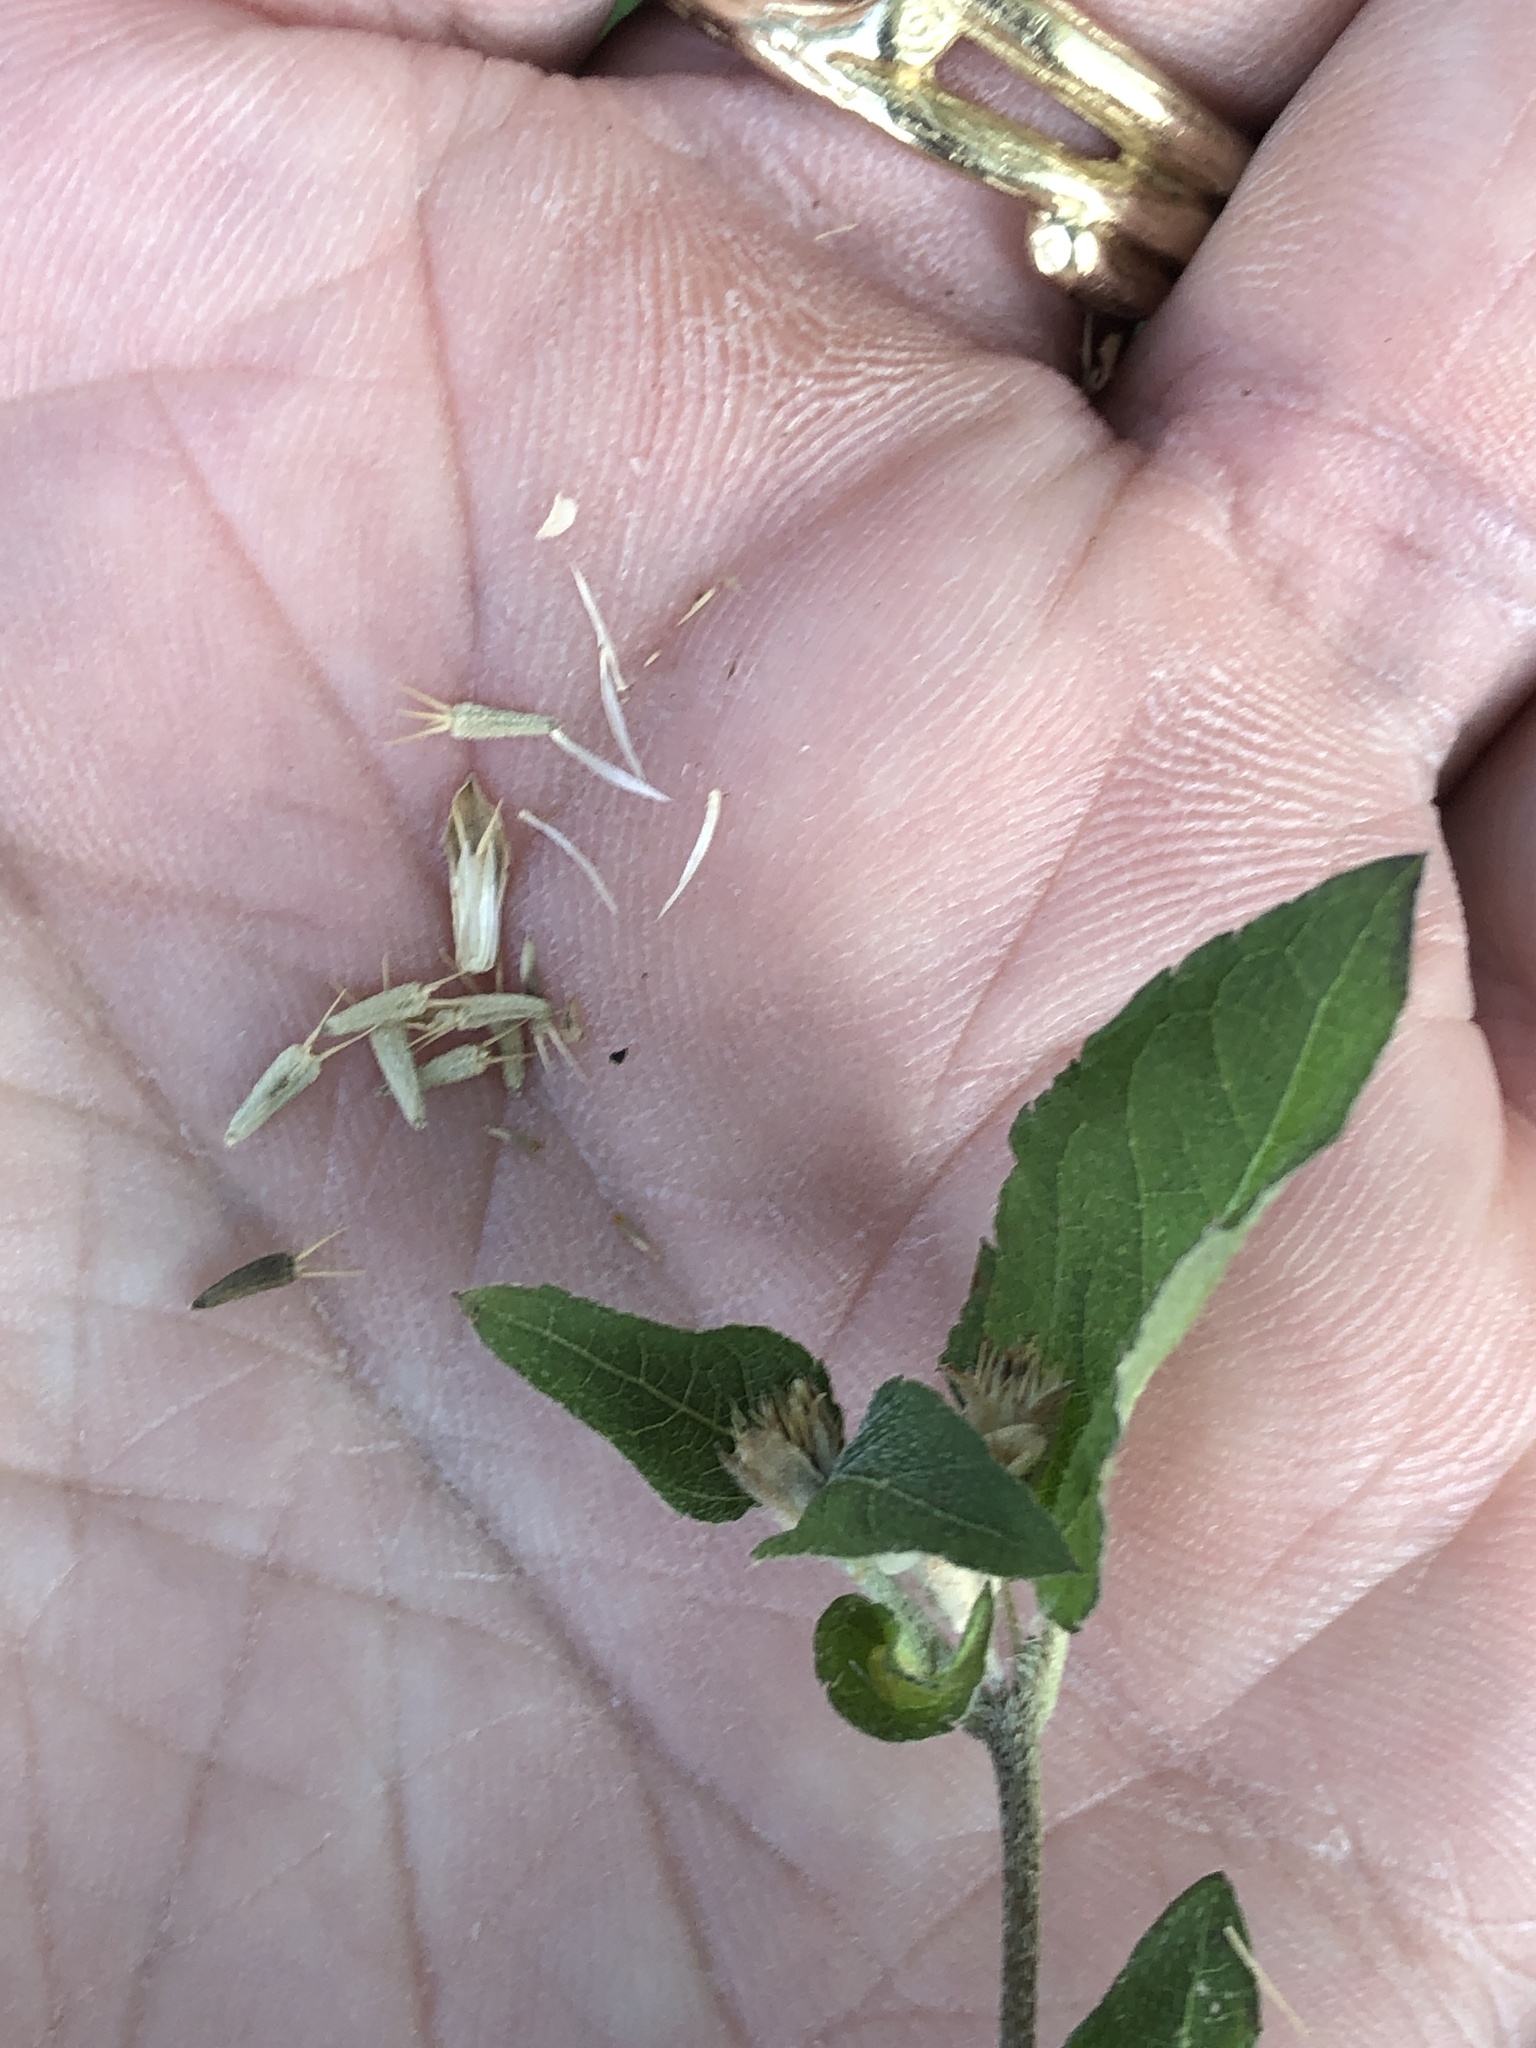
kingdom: Plantae
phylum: Tracheophyta
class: Magnoliopsida
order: Asterales
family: Asteraceae
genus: Calyptocarpus
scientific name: Calyptocarpus vialis
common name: Straggler daisy
